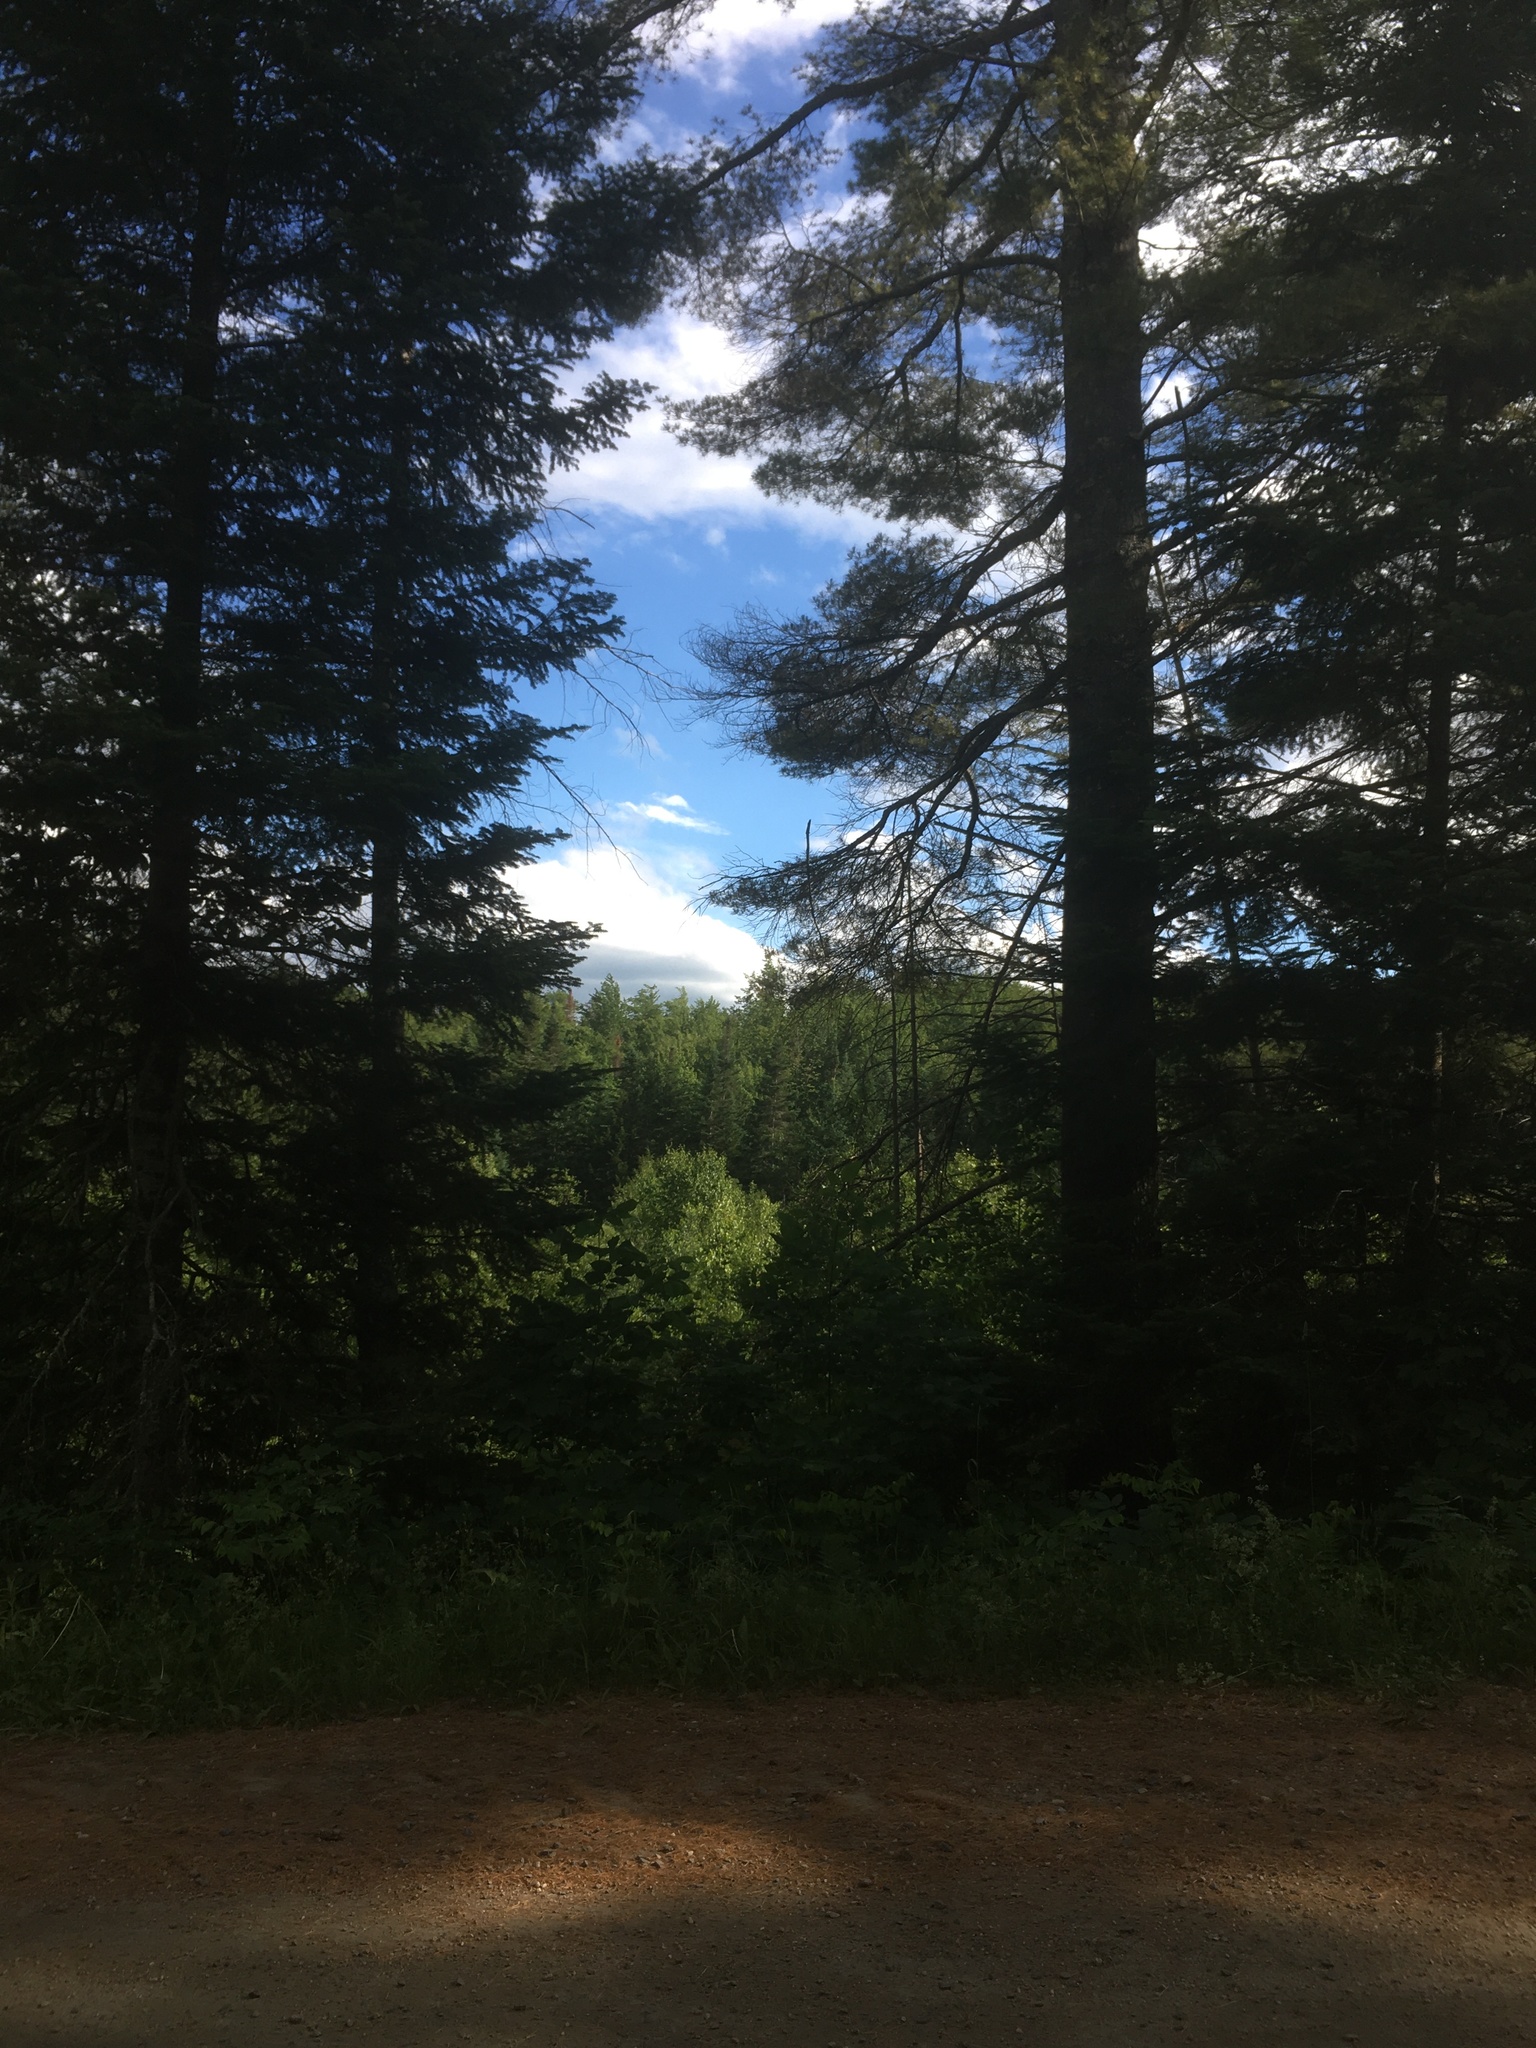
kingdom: Plantae
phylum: Tracheophyta
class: Pinopsida
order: Pinales
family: Pinaceae
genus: Pinus
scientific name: Pinus strobus
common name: Weymouth pine
